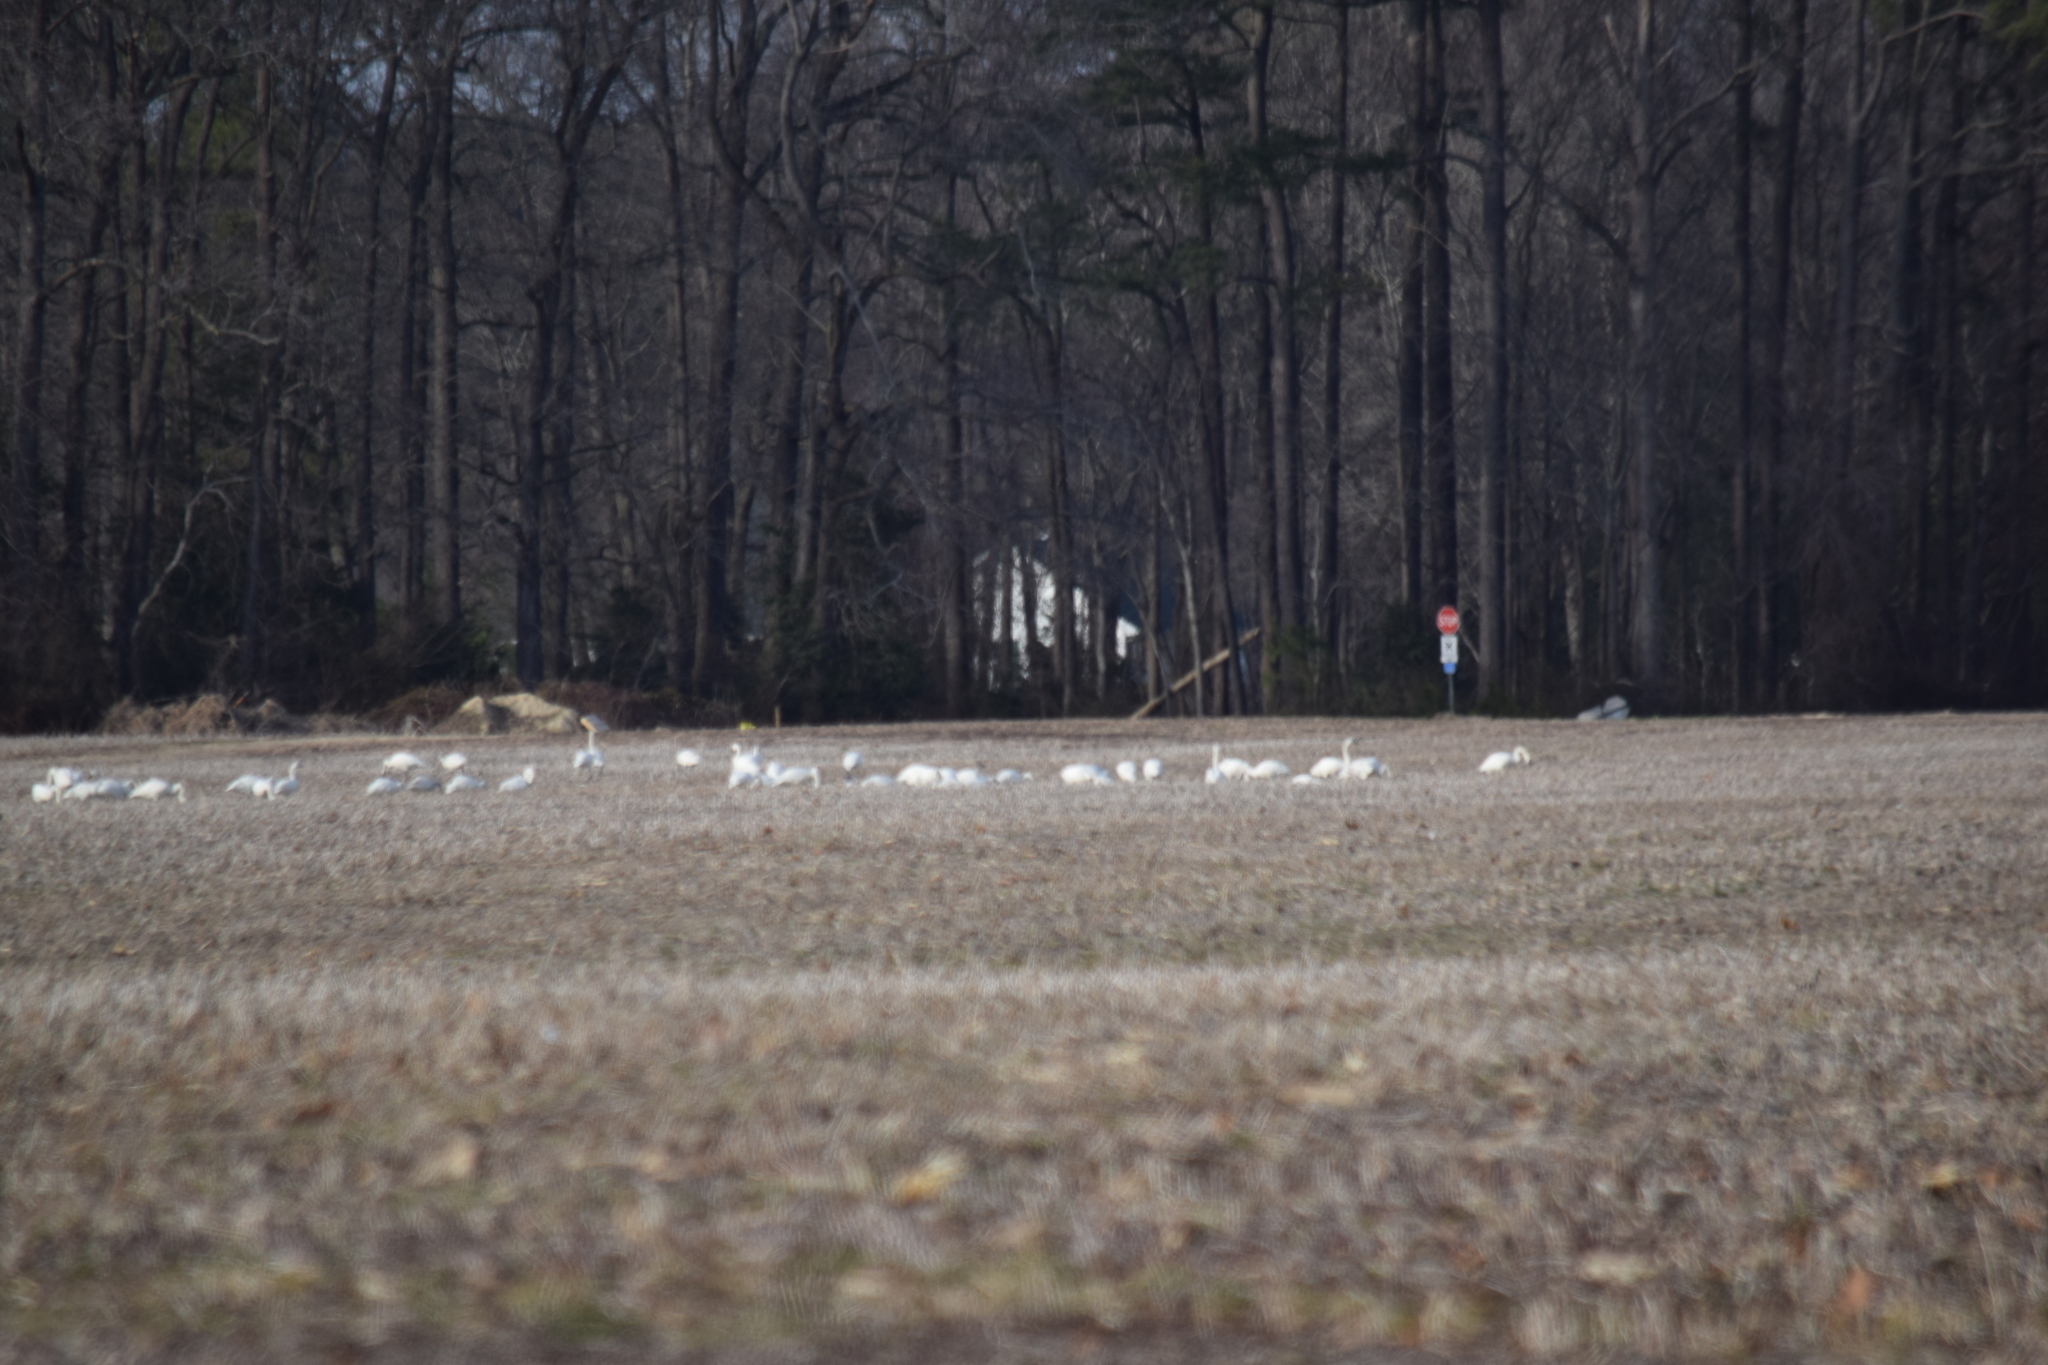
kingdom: Animalia
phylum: Chordata
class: Aves
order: Anseriformes
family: Anatidae
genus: Cygnus
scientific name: Cygnus columbianus
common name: Tundra swan
